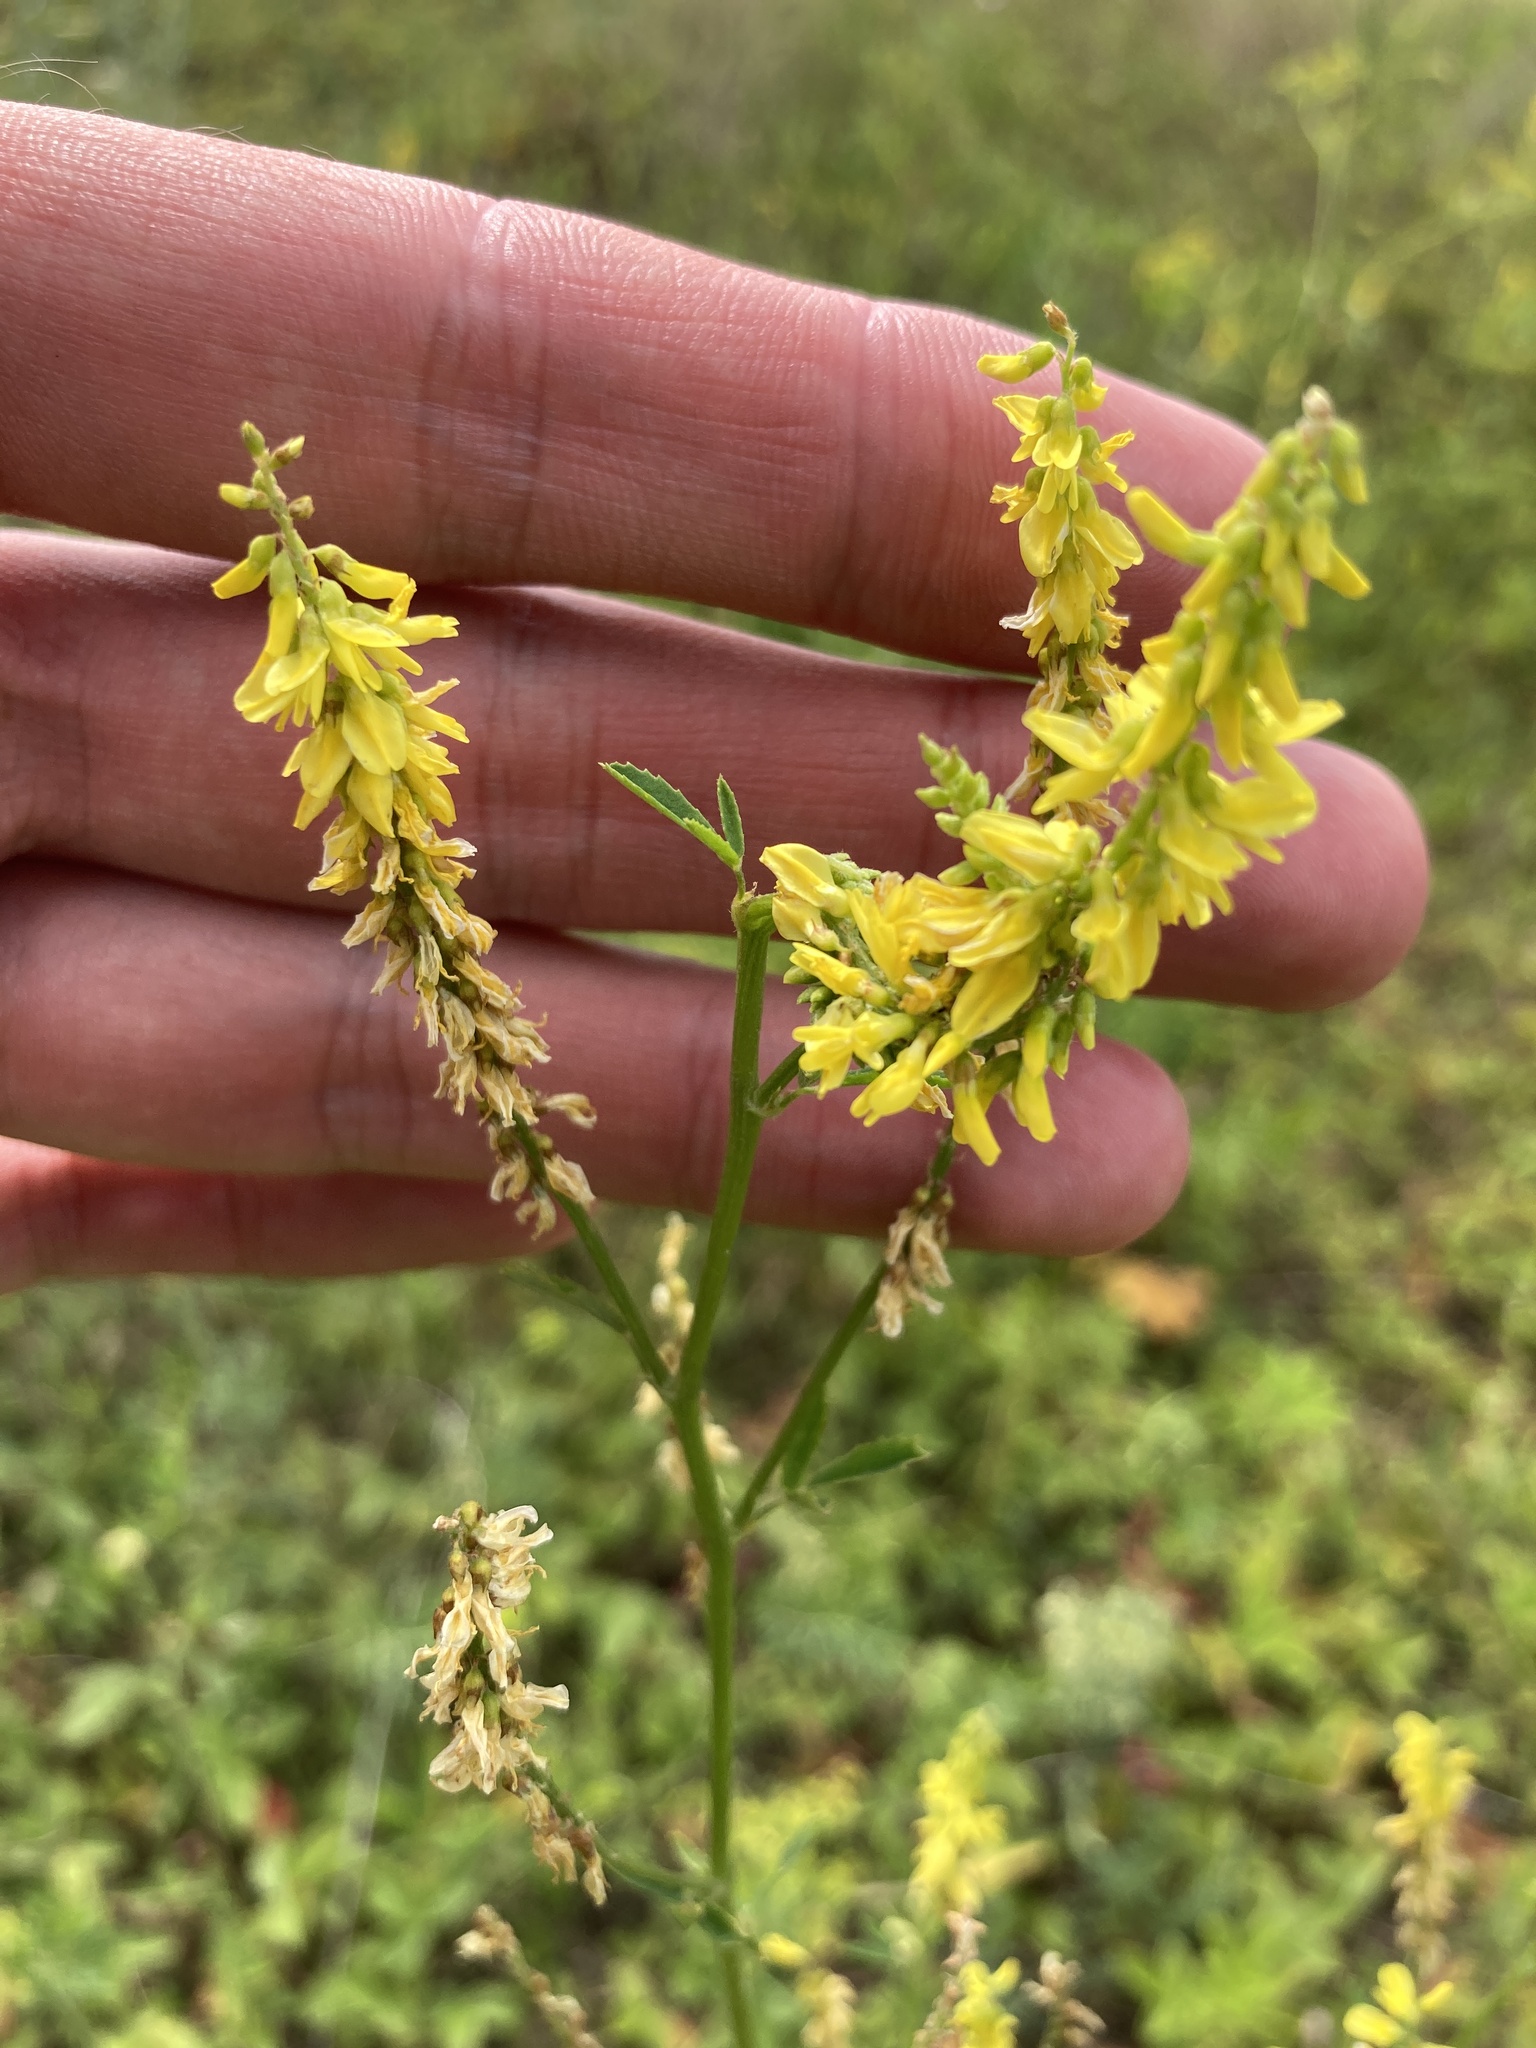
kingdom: Plantae
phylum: Tracheophyta
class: Magnoliopsida
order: Fabales
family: Fabaceae
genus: Melilotus
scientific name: Melilotus officinalis
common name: Sweetclover
